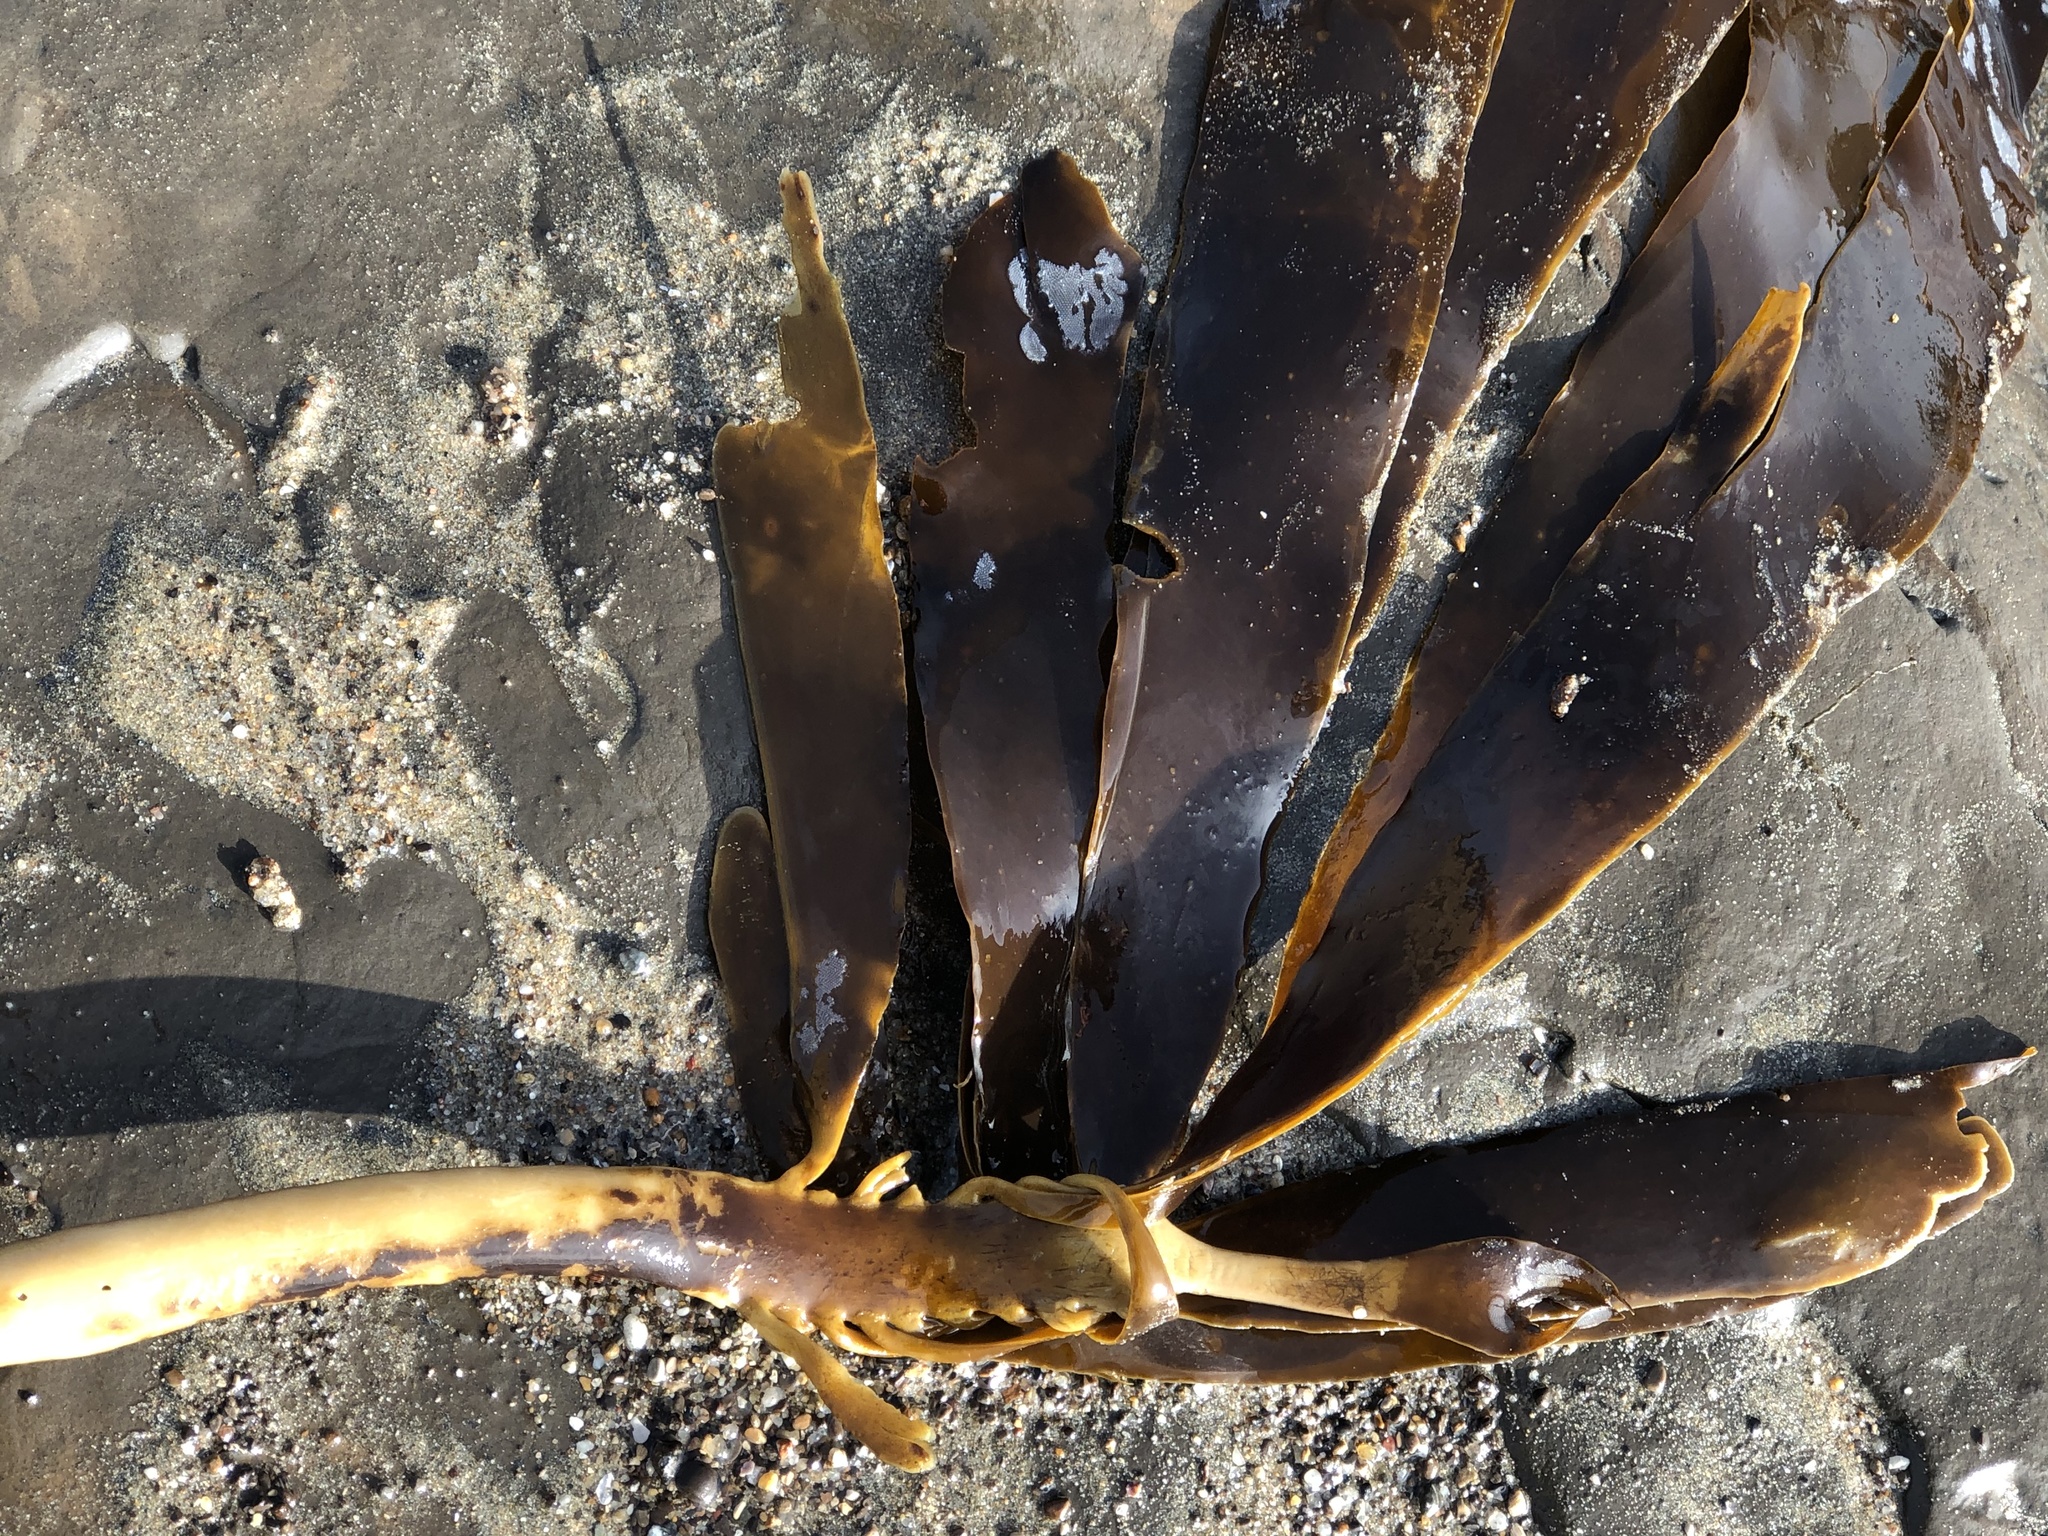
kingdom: Chromista
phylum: Ochrophyta
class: Phaeophyceae
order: Laminariales
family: Alariaceae
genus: Pterygophora
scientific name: Pterygophora californica
